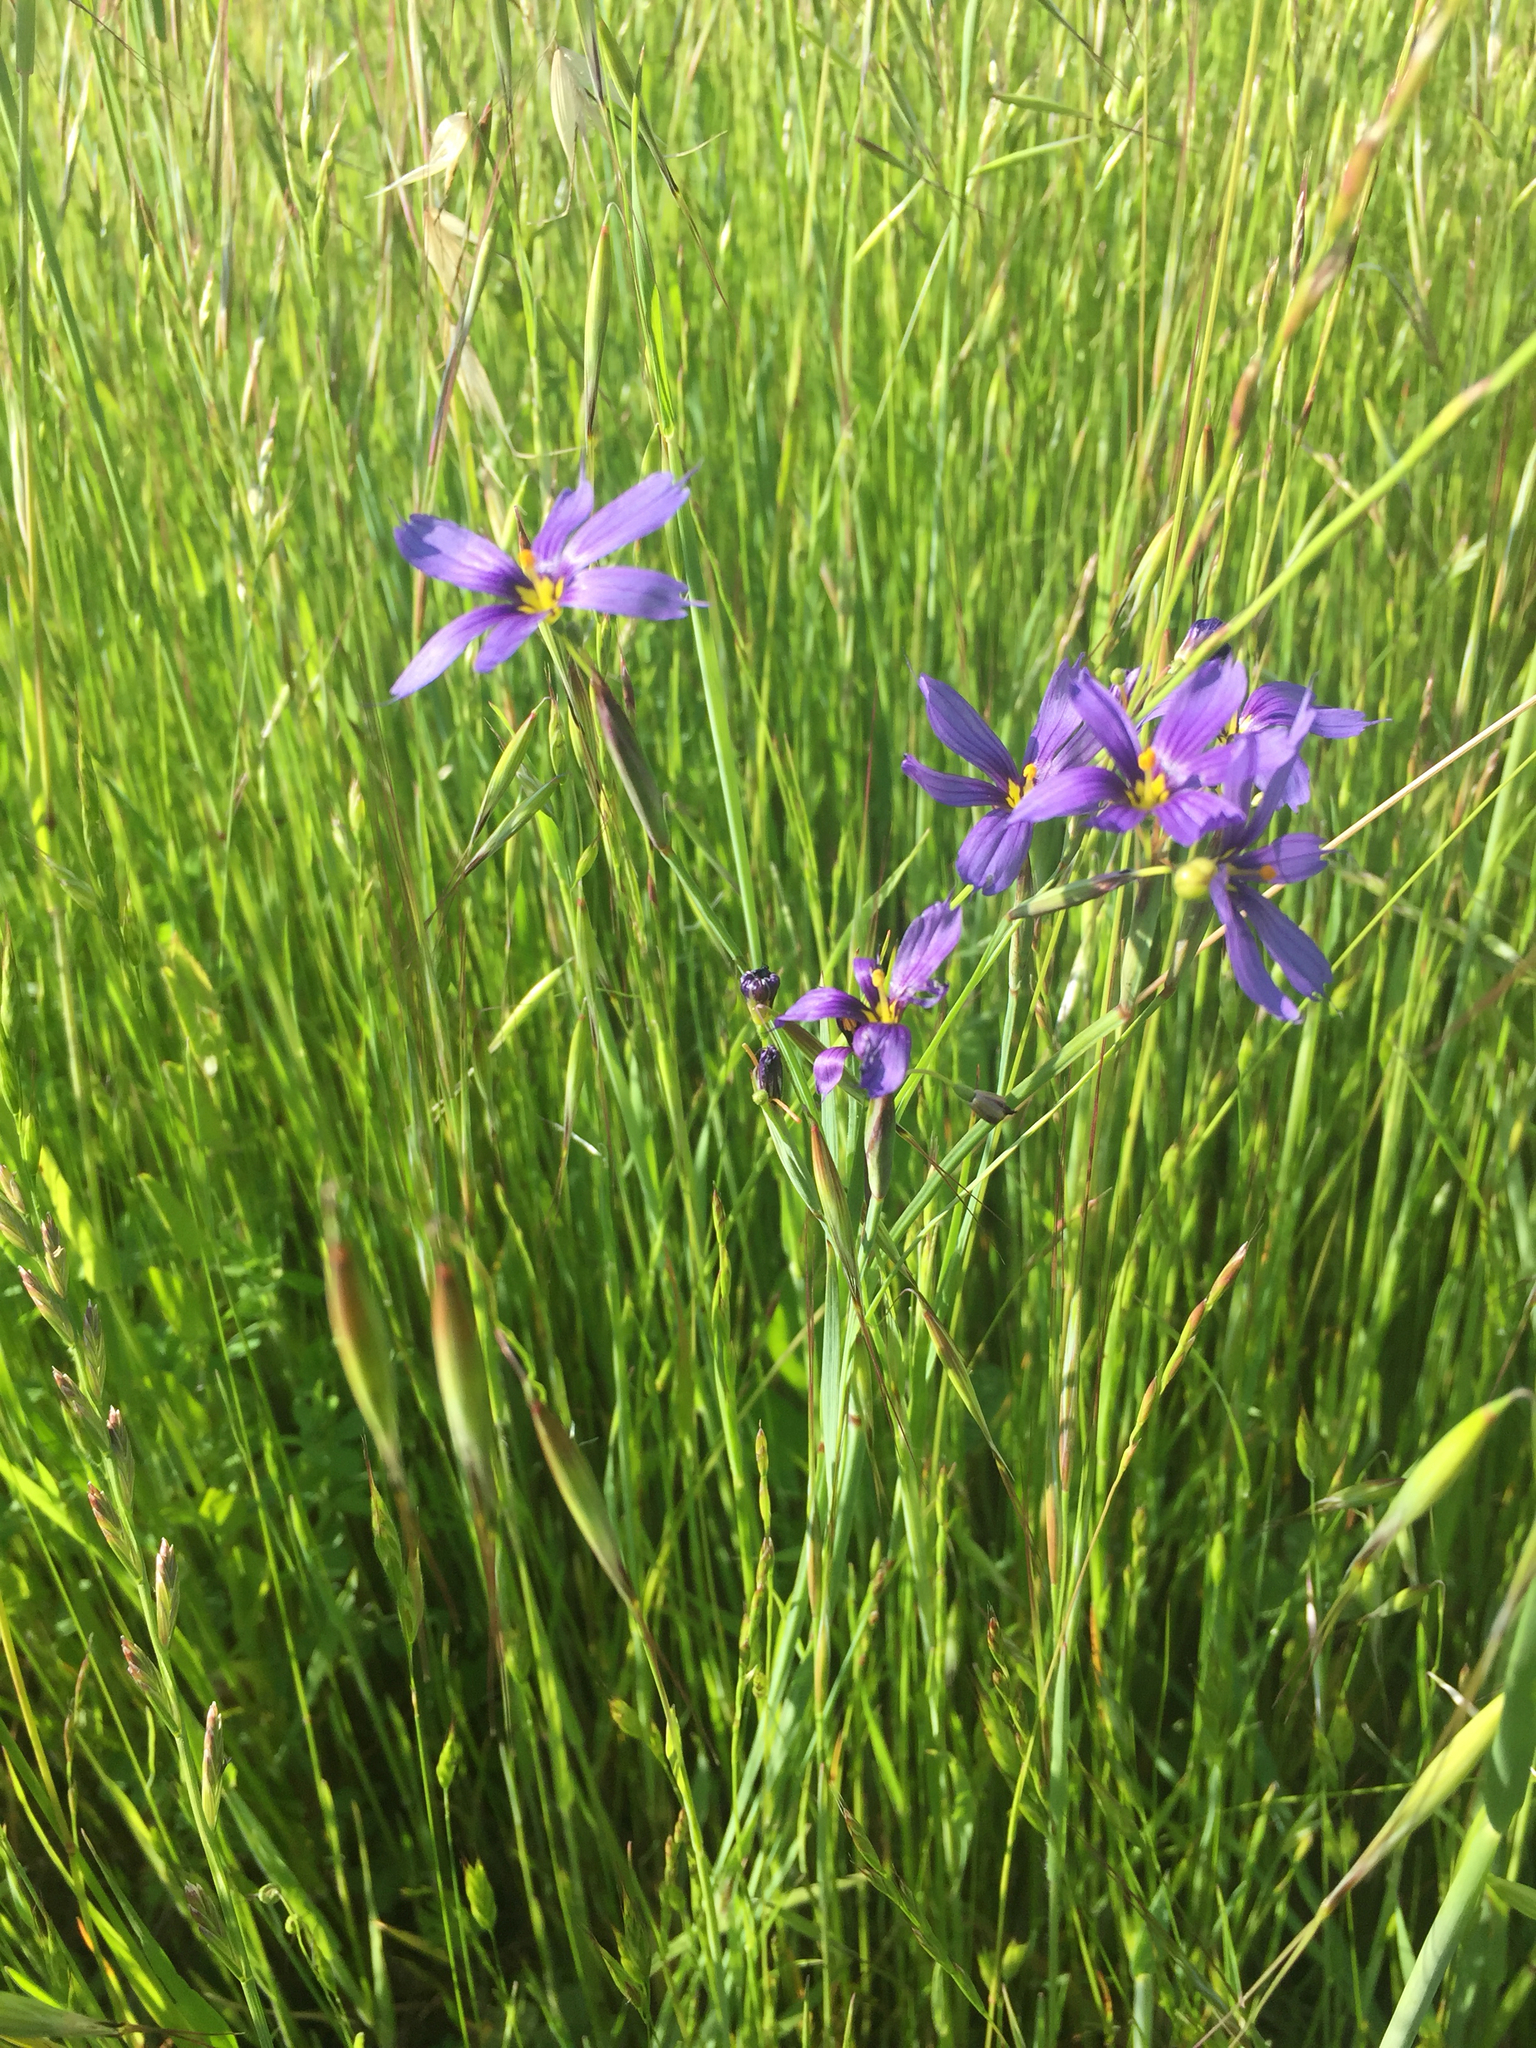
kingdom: Plantae
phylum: Tracheophyta
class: Liliopsida
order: Asparagales
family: Iridaceae
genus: Sisyrinchium
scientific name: Sisyrinchium bellum
